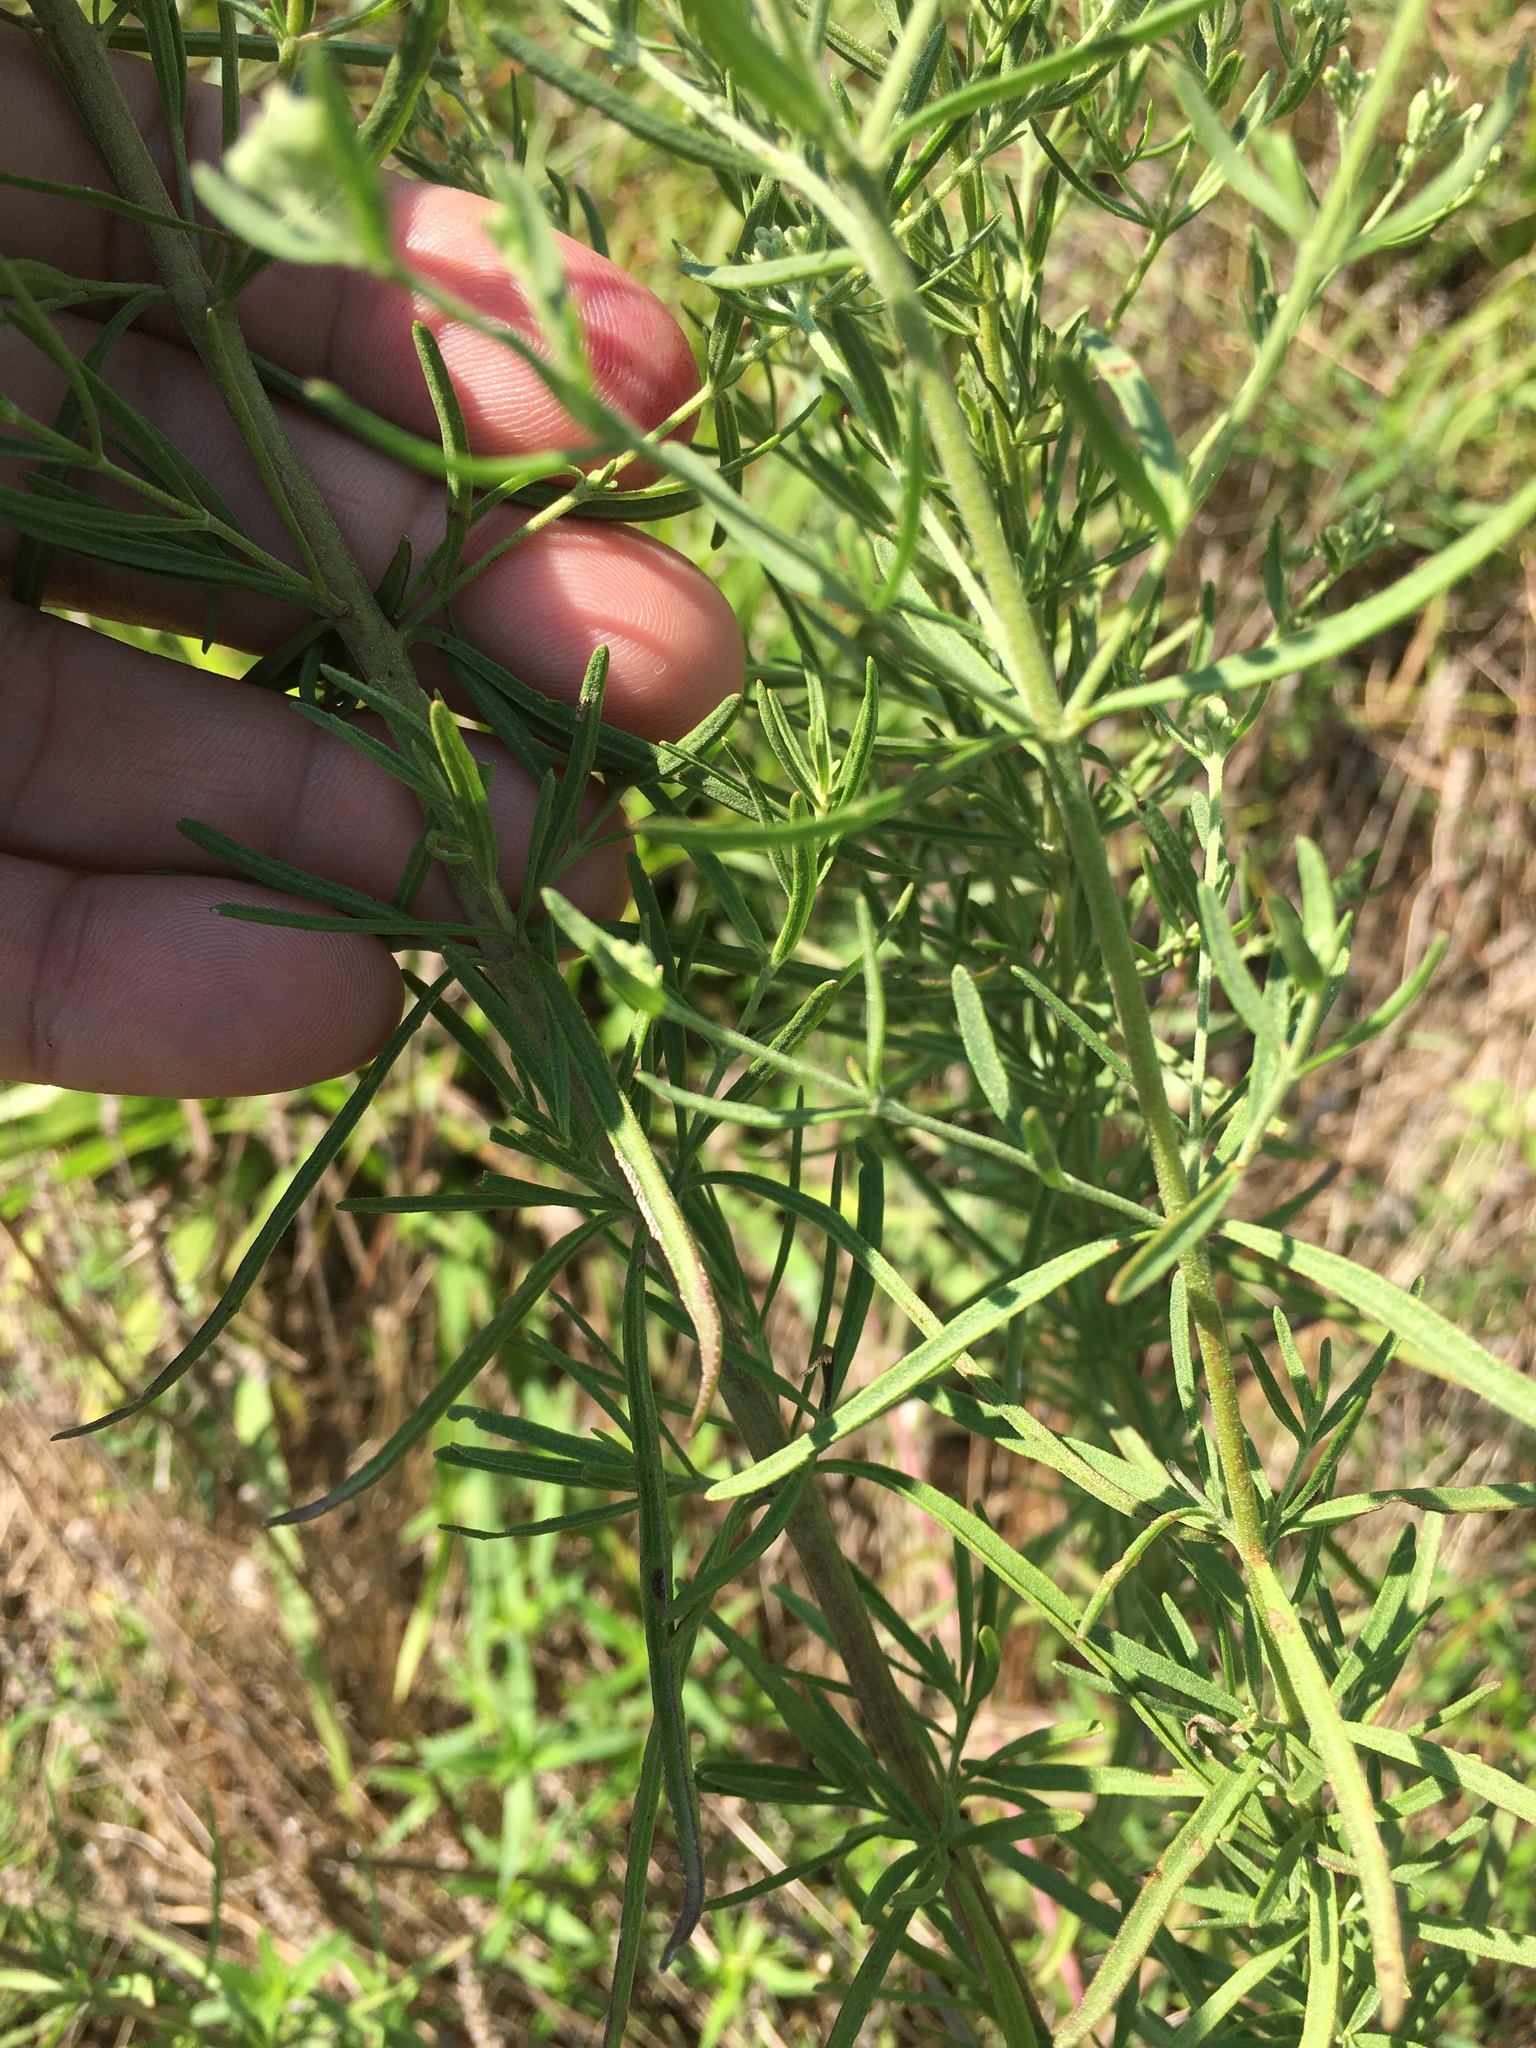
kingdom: Plantae
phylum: Tracheophyta
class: Magnoliopsida
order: Asterales
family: Asteraceae
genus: Eupatorium
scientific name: Eupatorium hyssopifolium
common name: Hyssop-leaf thoroughwort
